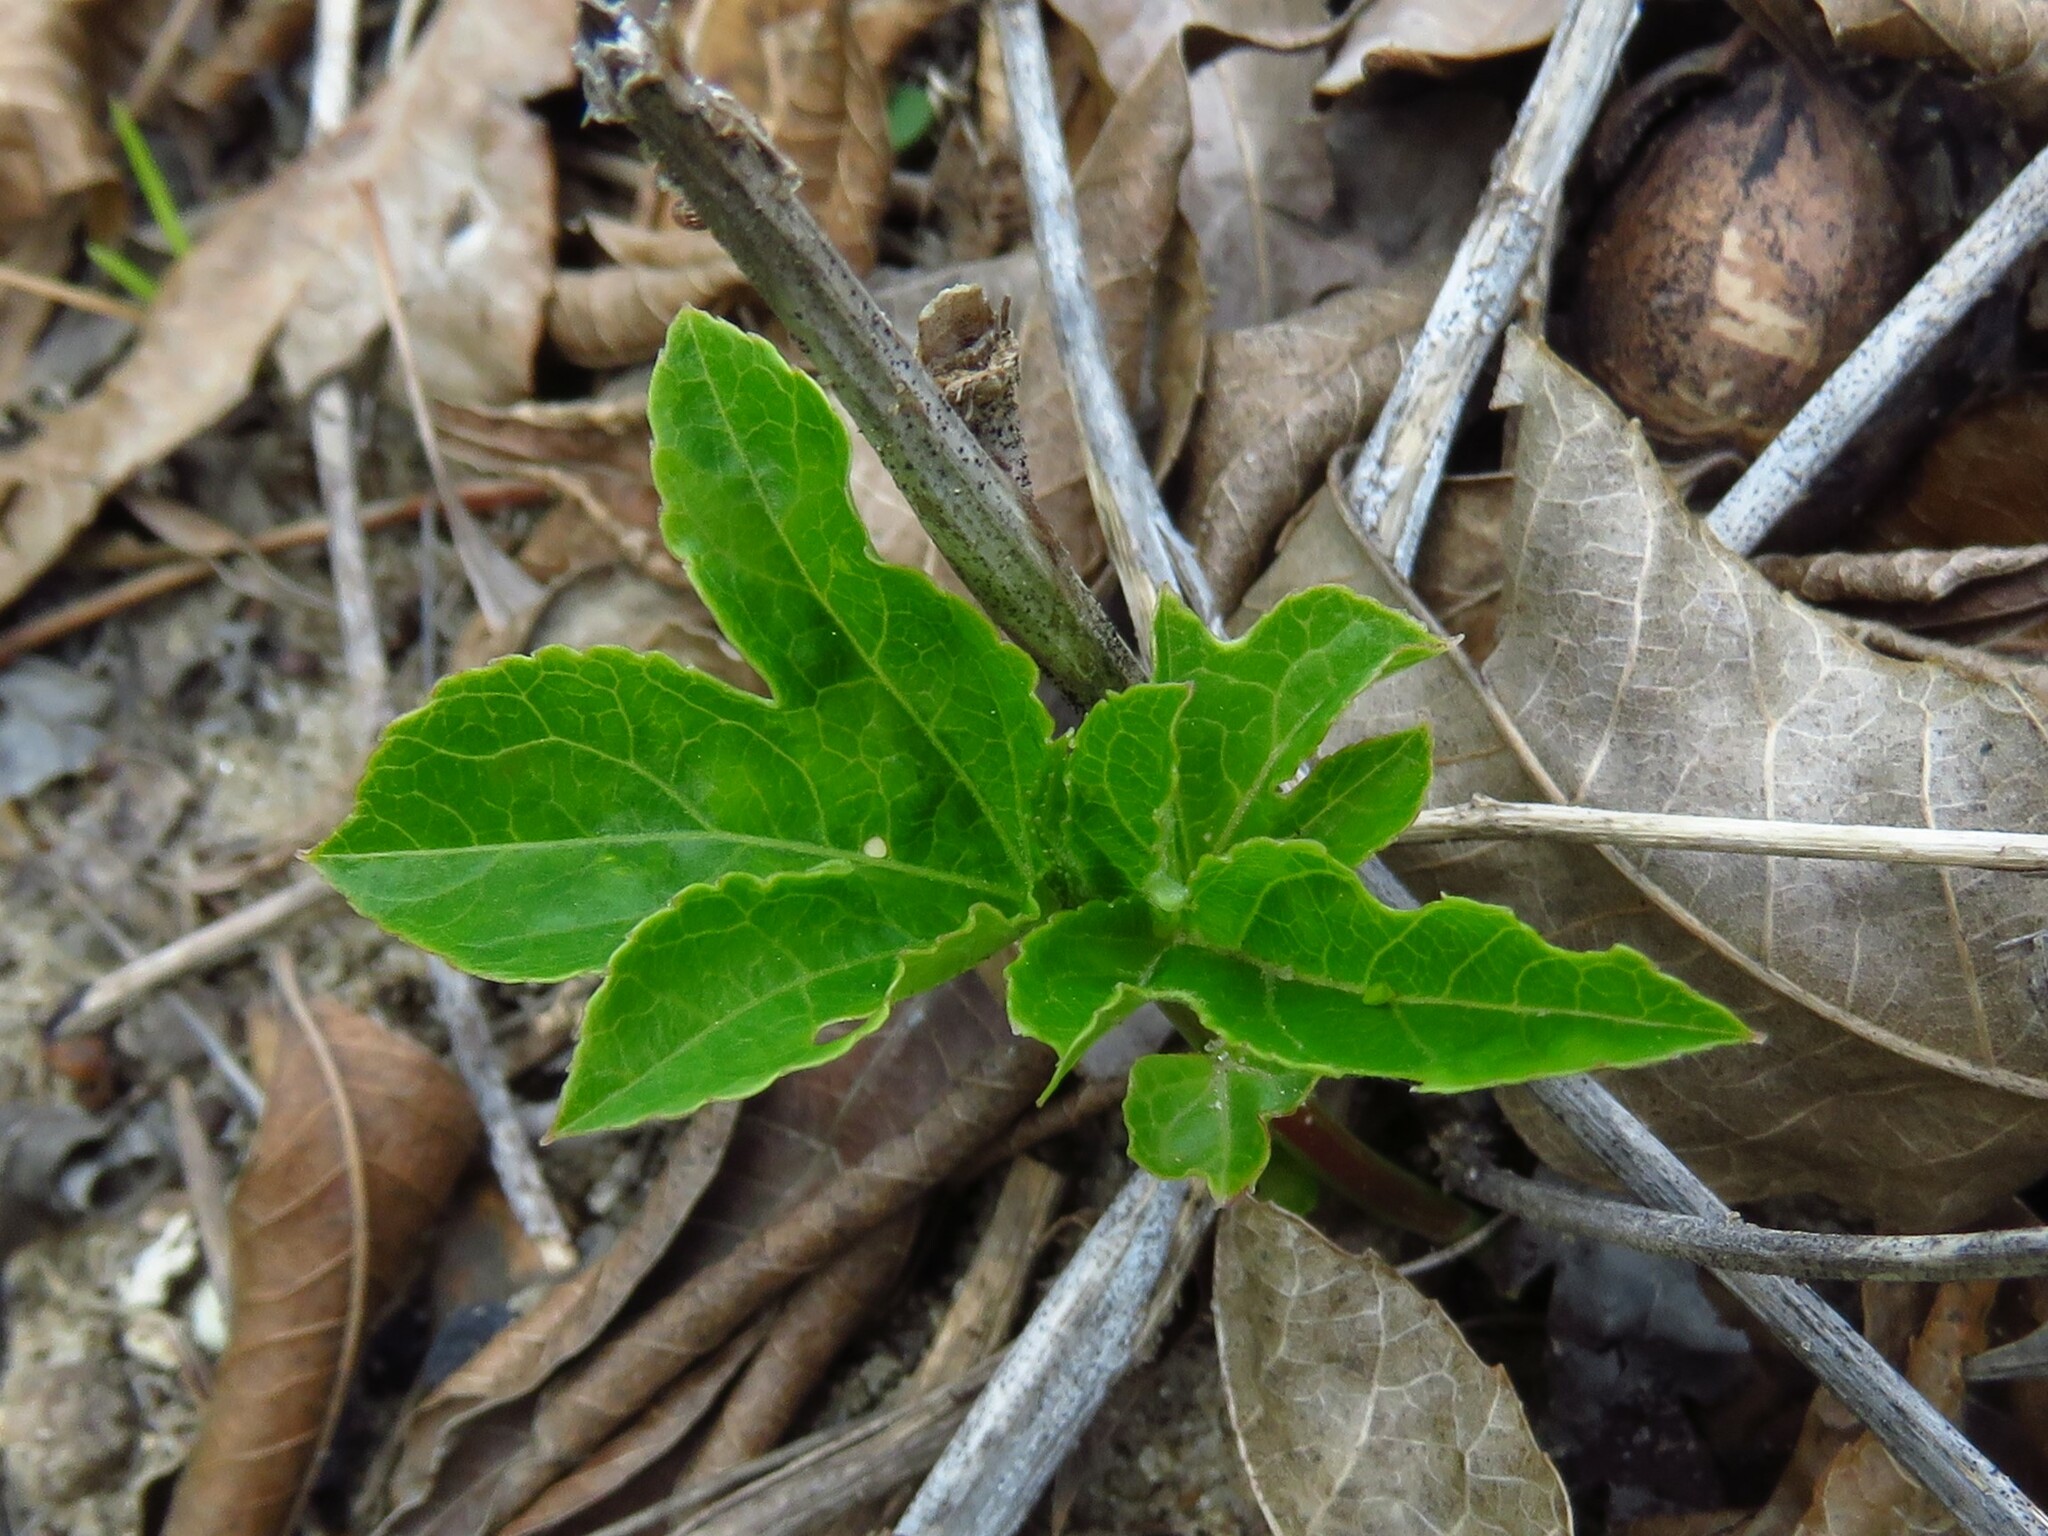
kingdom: Plantae
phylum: Tracheophyta
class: Magnoliopsida
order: Malpighiales
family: Passifloraceae
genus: Passiflora
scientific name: Passiflora incarnata
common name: Apricot-vine
